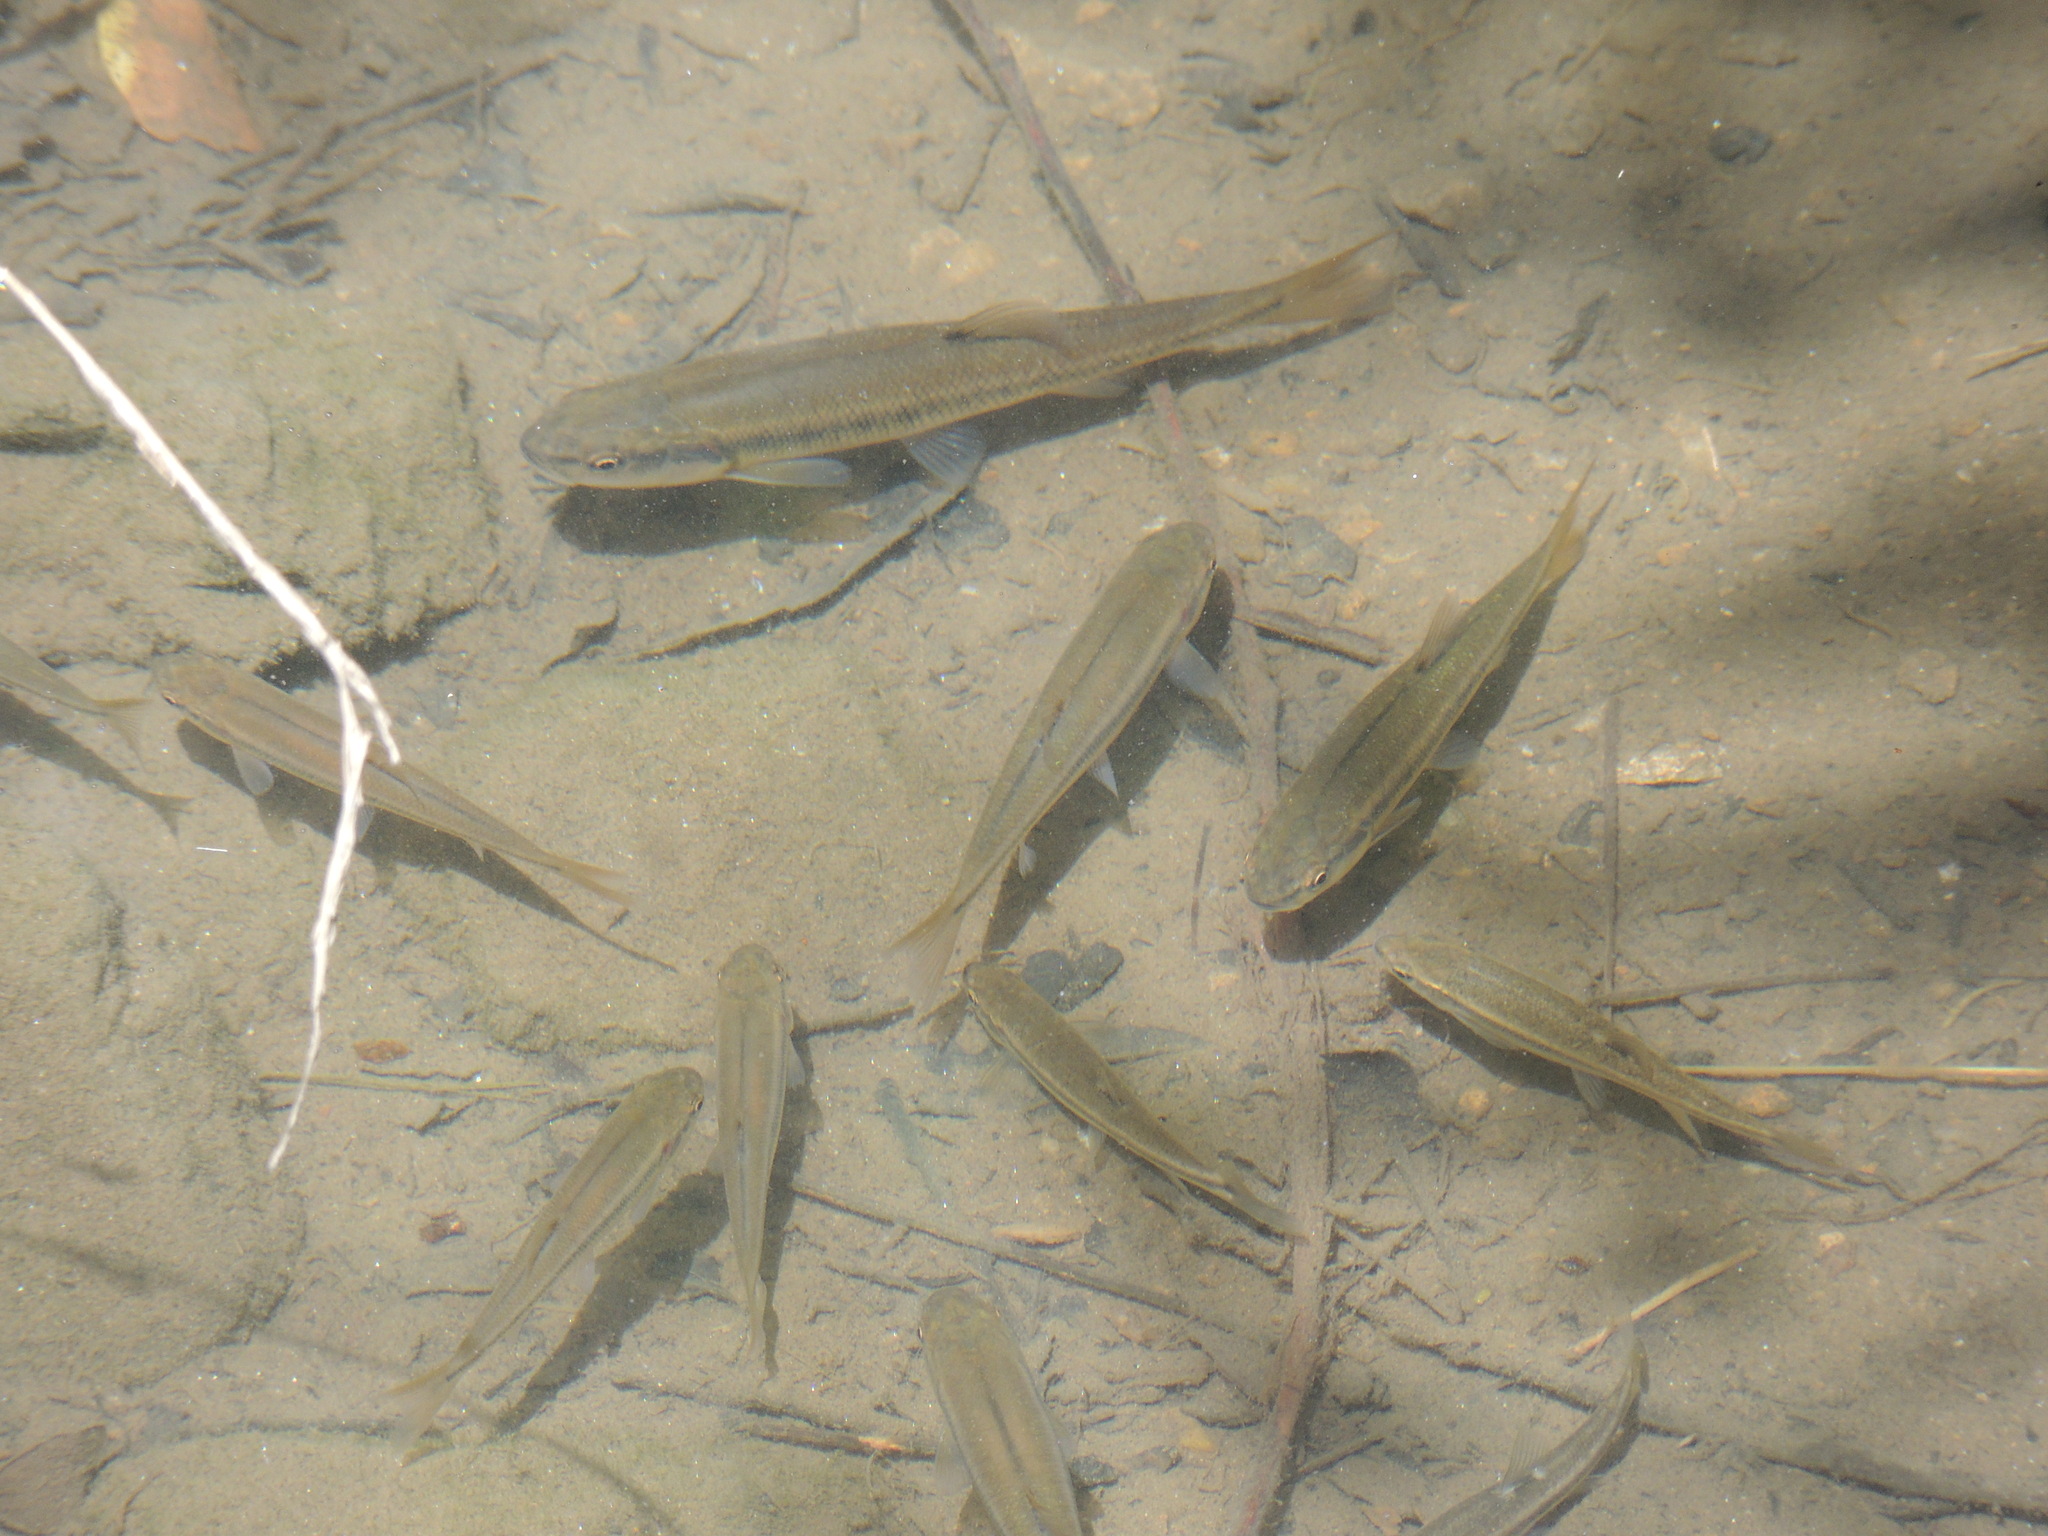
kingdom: Animalia
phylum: Chordata
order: Cypriniformes
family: Cyprinidae
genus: Semotilus
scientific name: Semotilus atromaculatus
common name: Creek chub
